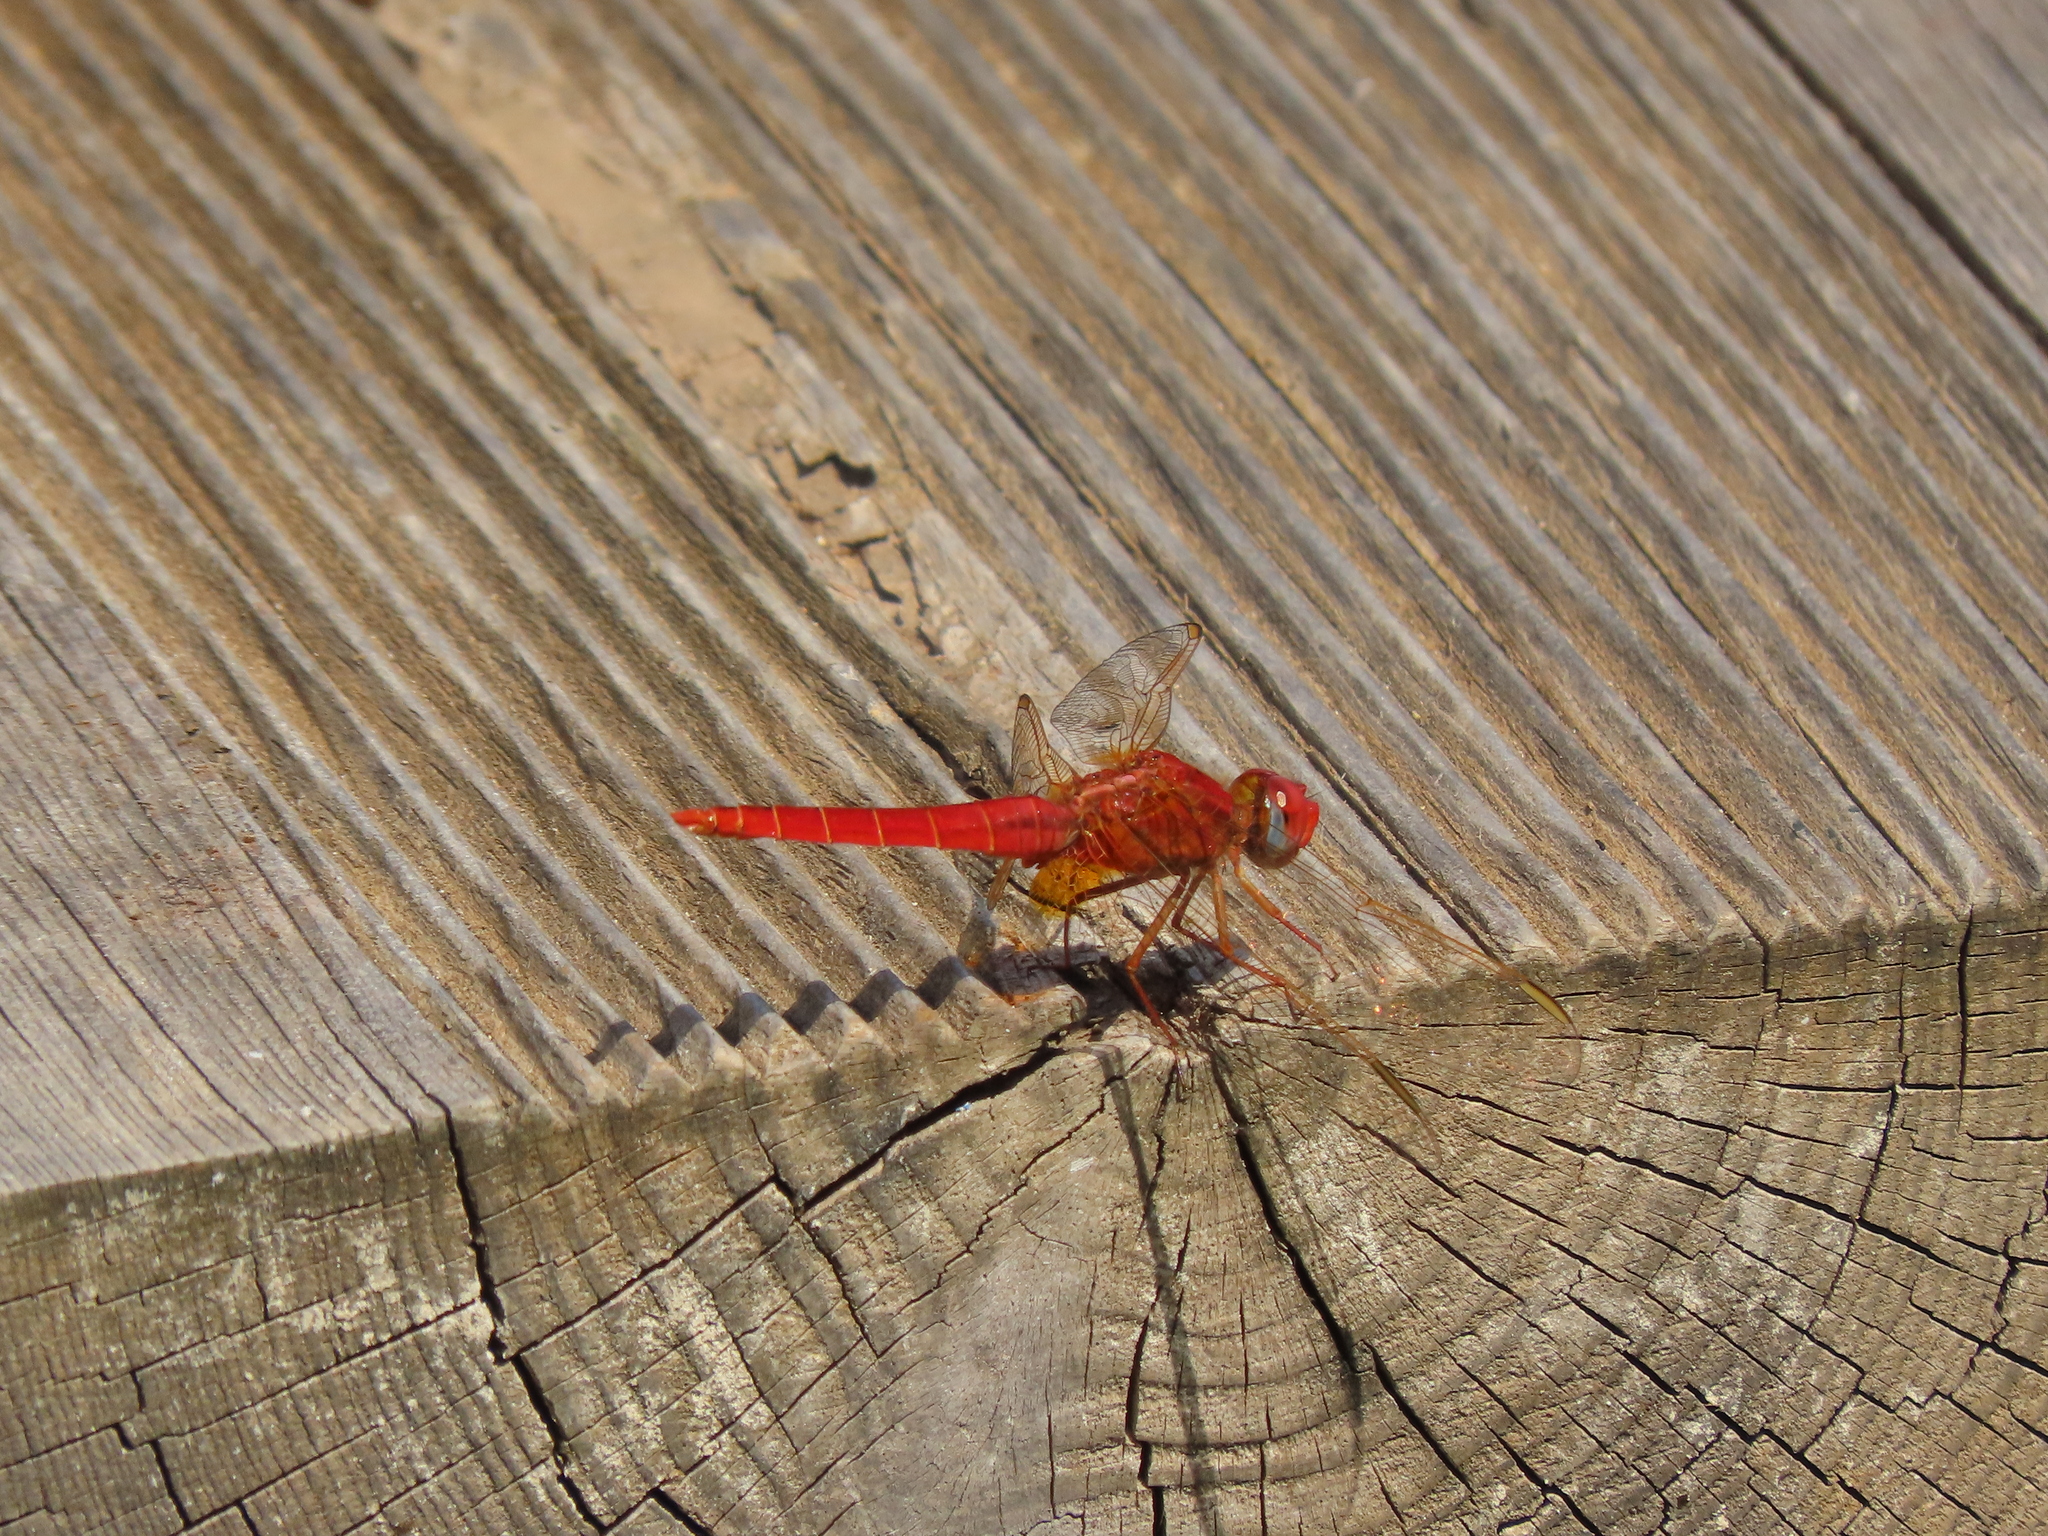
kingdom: Animalia
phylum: Arthropoda
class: Insecta
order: Odonata
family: Libellulidae
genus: Crocothemis
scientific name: Crocothemis erythraea
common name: Scarlet dragonfly
